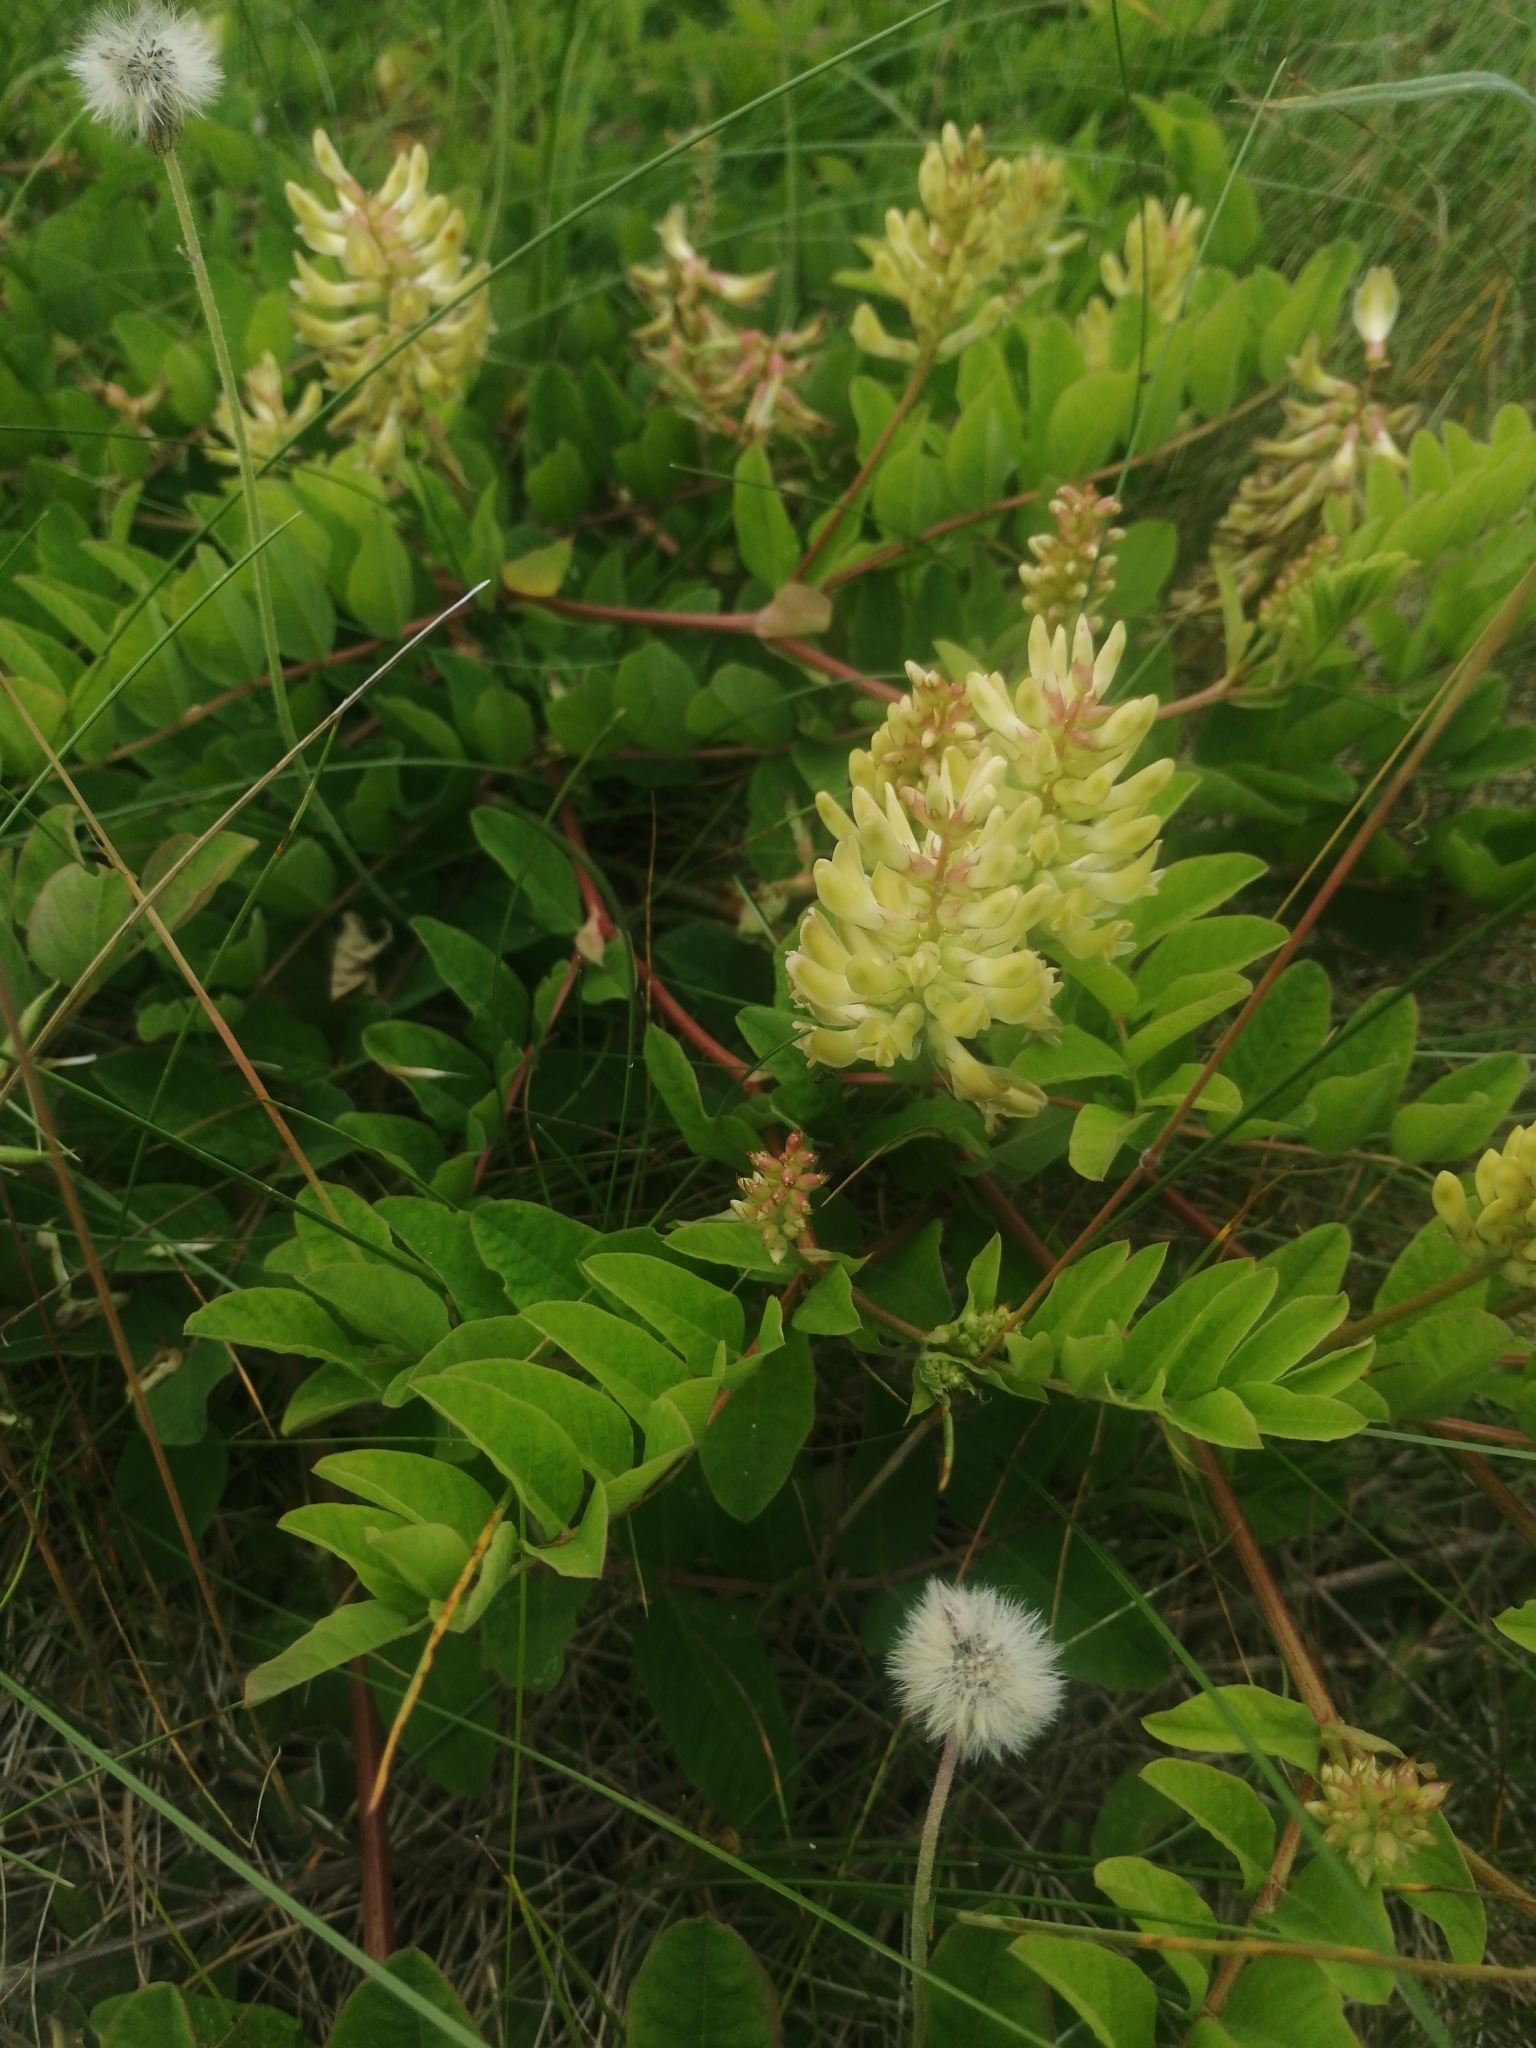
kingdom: Plantae
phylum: Tracheophyta
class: Magnoliopsida
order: Fabales
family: Fabaceae
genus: Astragalus
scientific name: Astragalus glycyphyllos
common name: Wild liquorice
